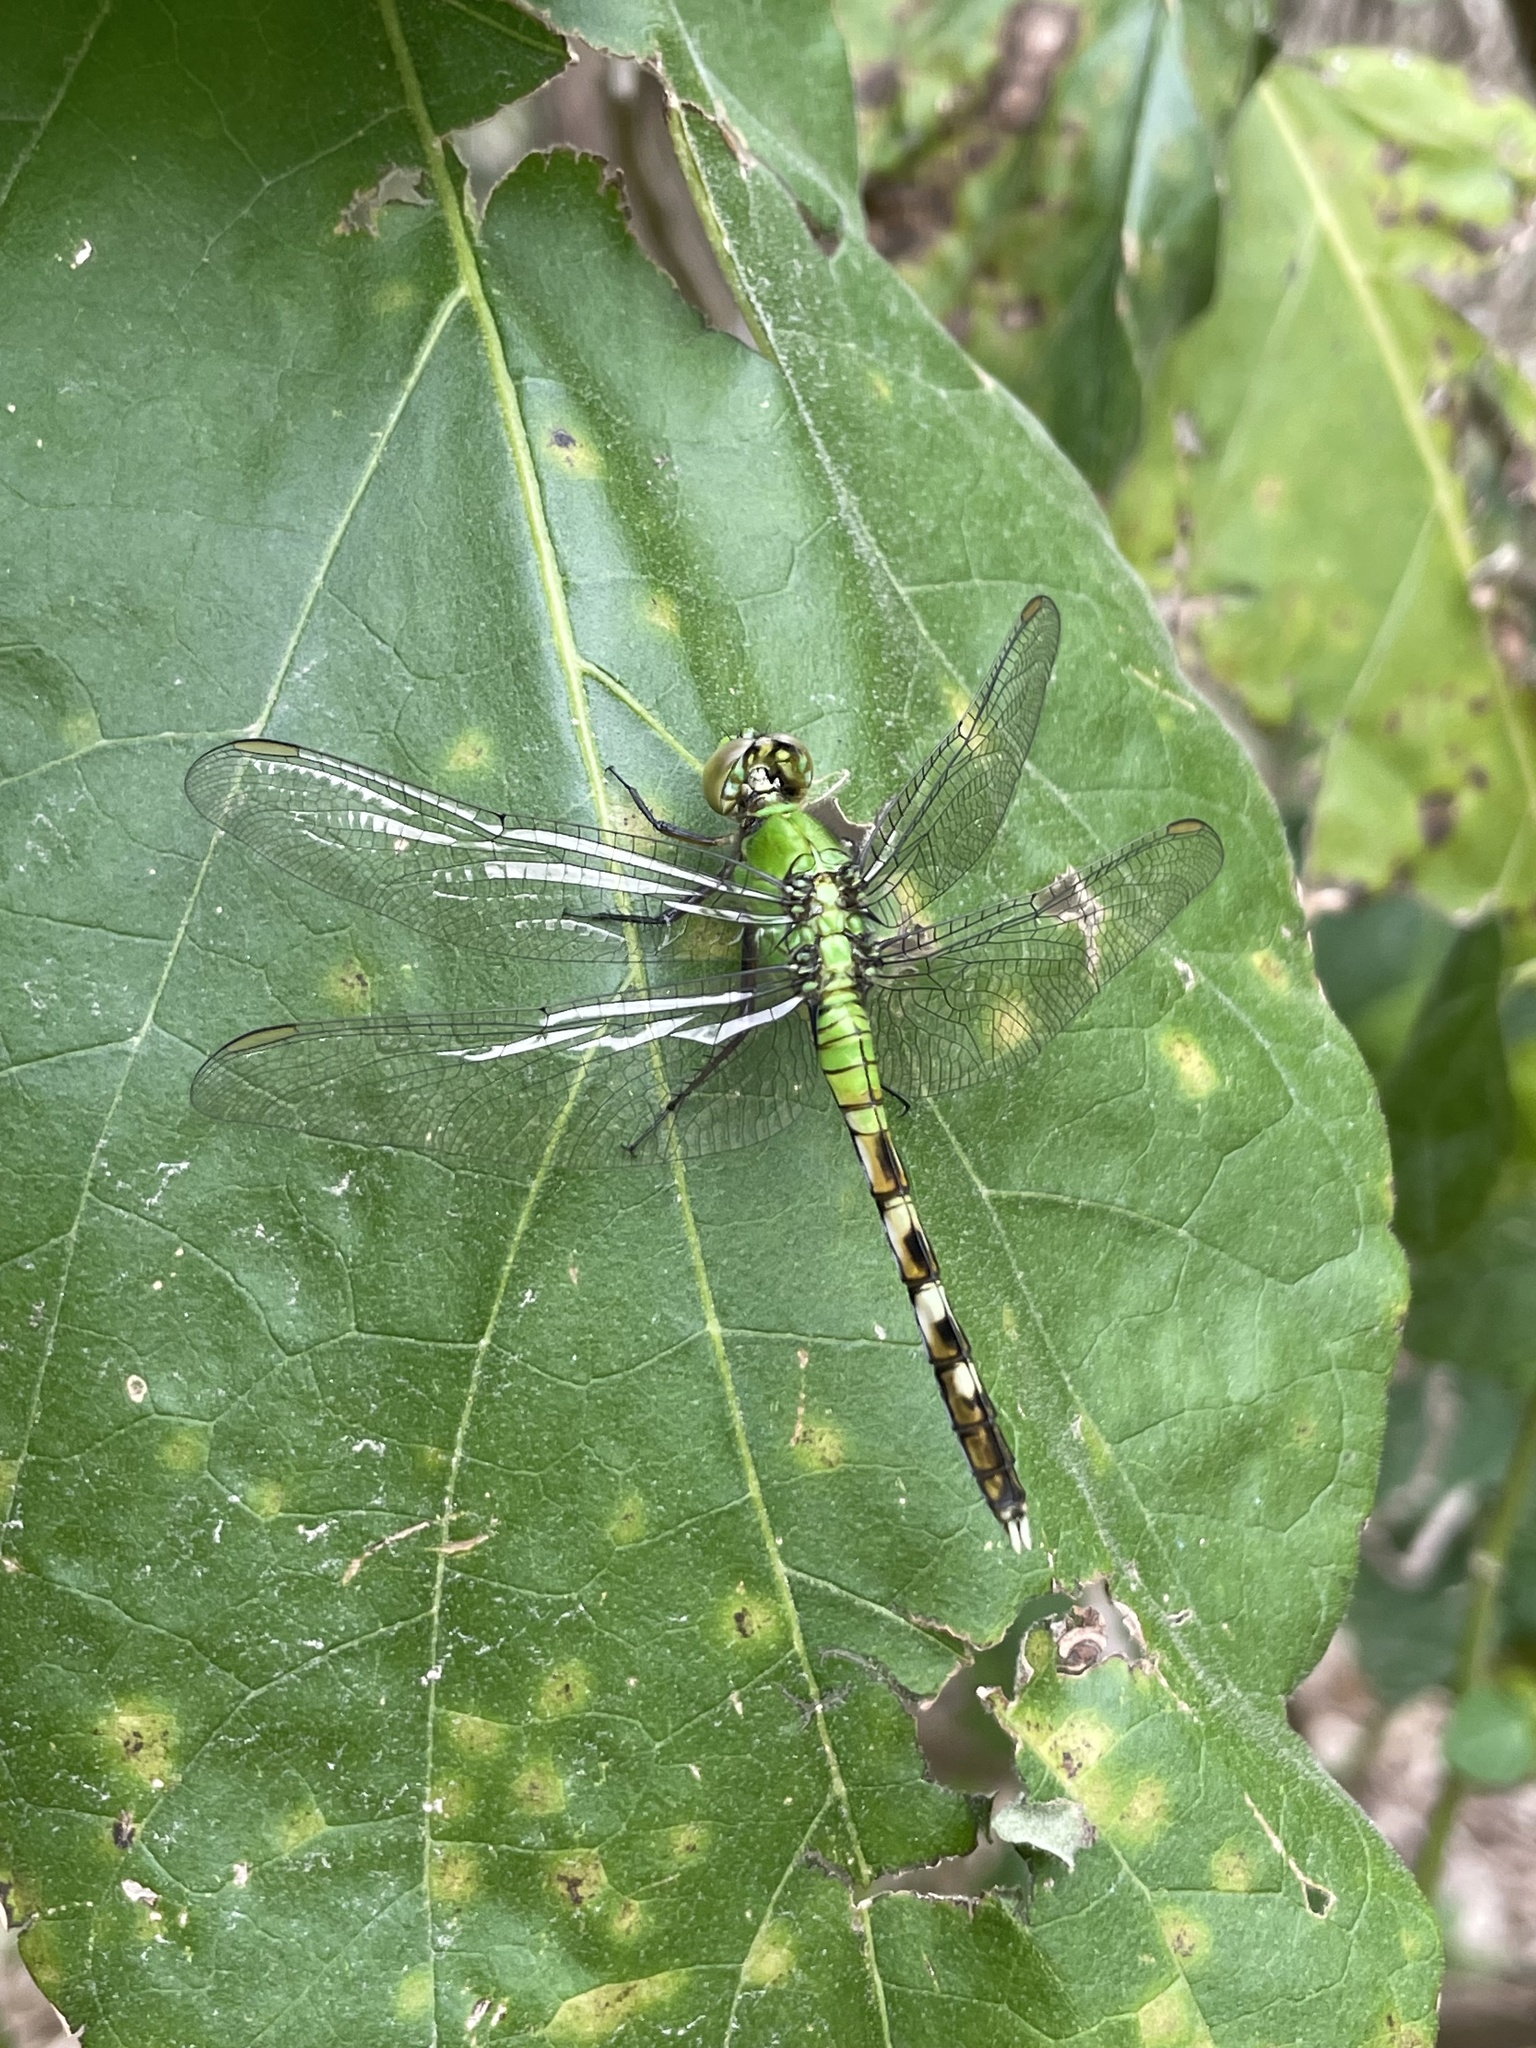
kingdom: Animalia
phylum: Arthropoda
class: Insecta
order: Odonata
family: Libellulidae
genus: Erythemis
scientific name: Erythemis simplicicollis
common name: Eastern pondhawk
